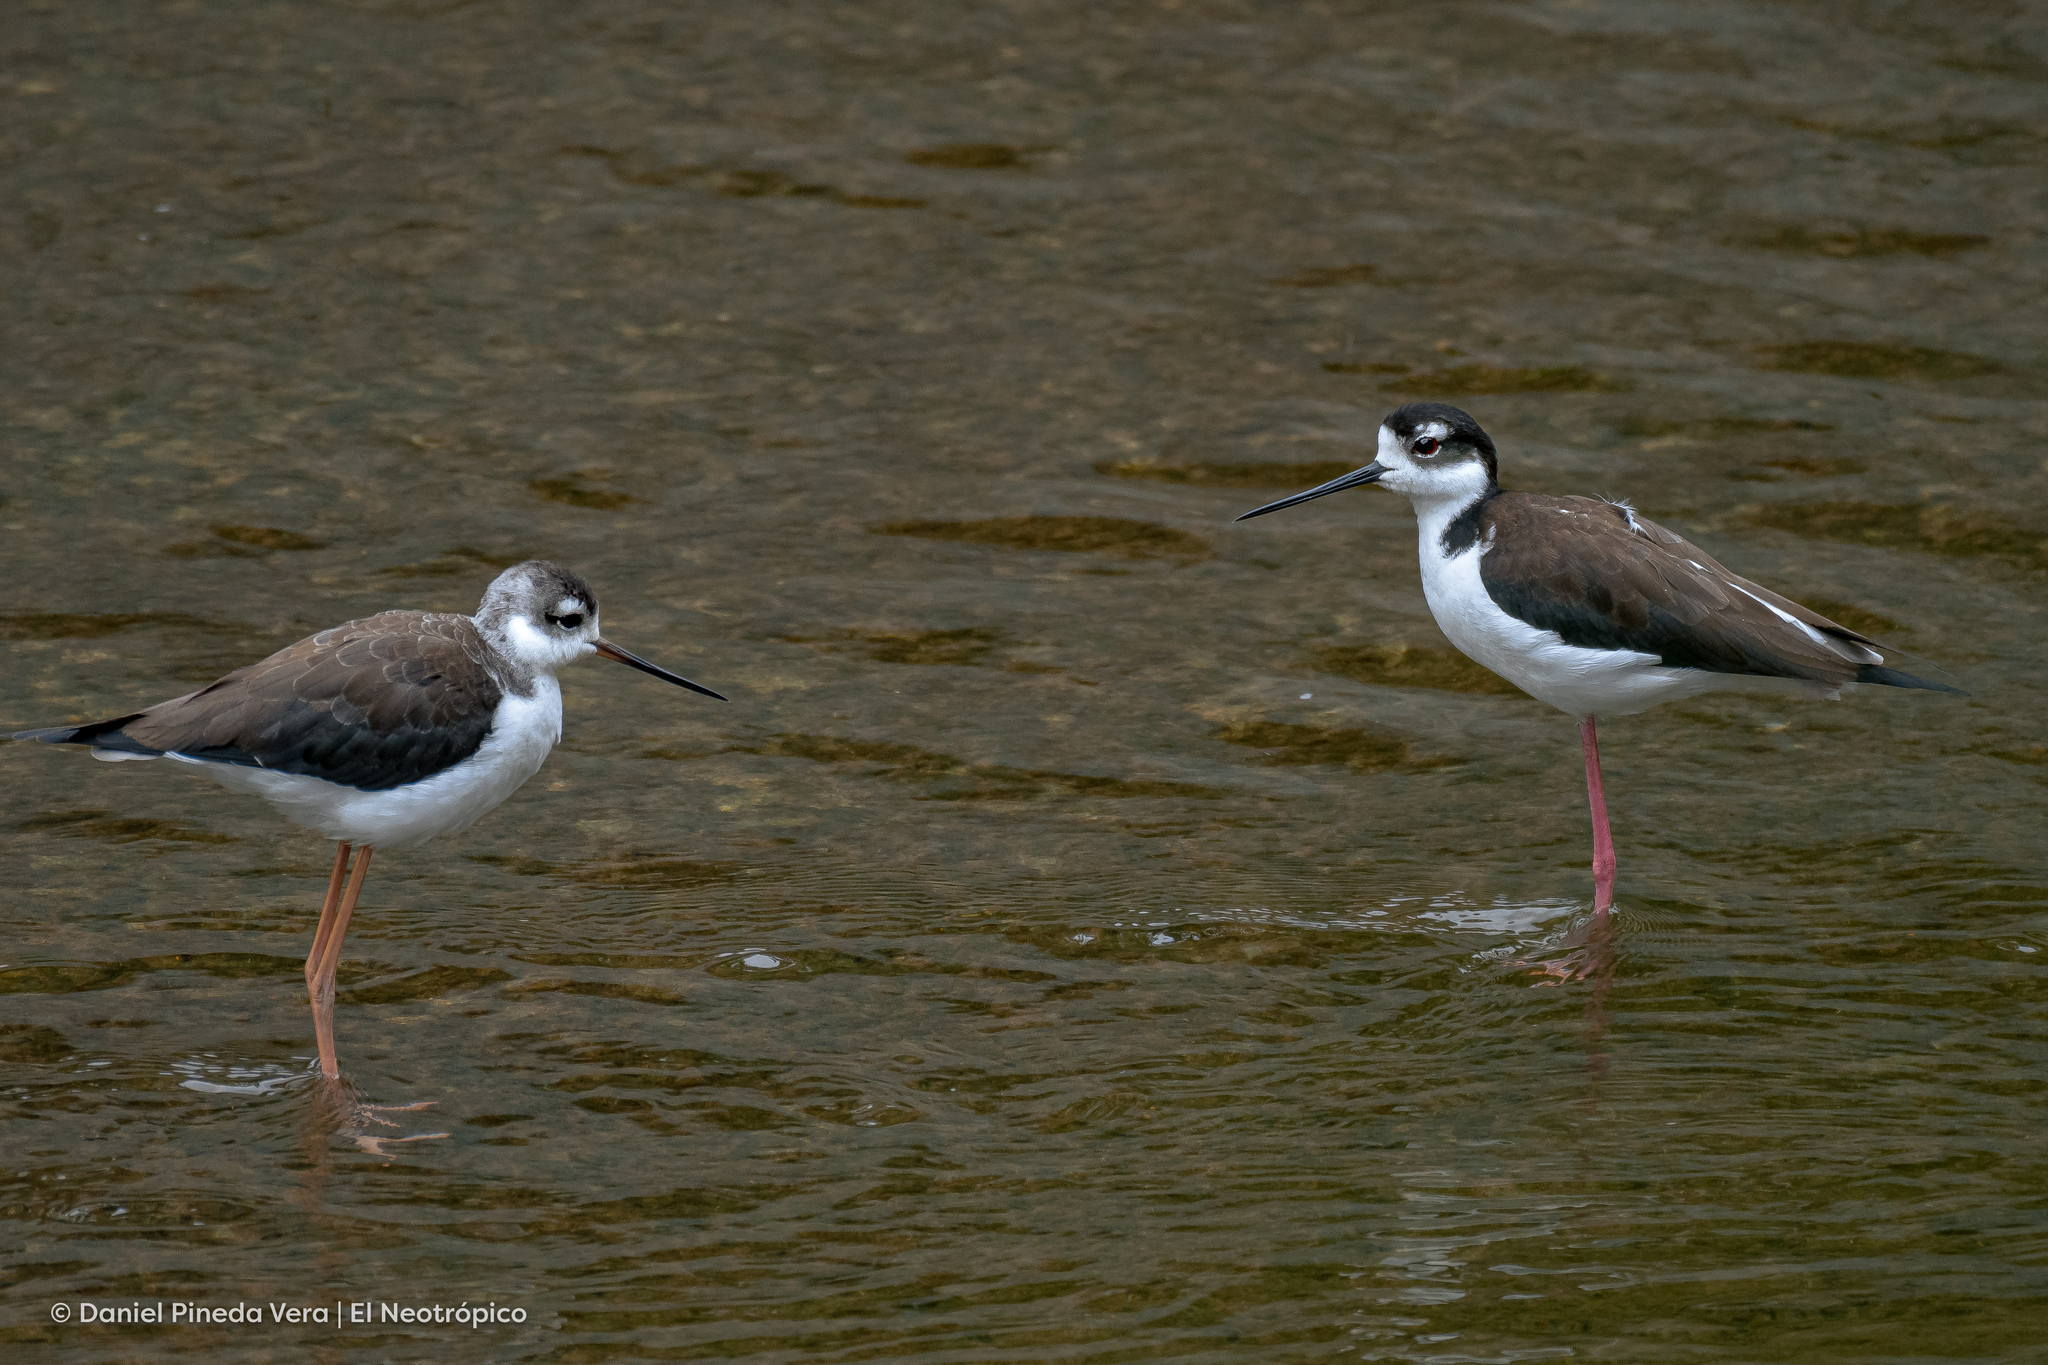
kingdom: Animalia
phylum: Chordata
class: Aves
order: Charadriiformes
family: Recurvirostridae
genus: Himantopus
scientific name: Himantopus mexicanus
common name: Black-necked stilt
